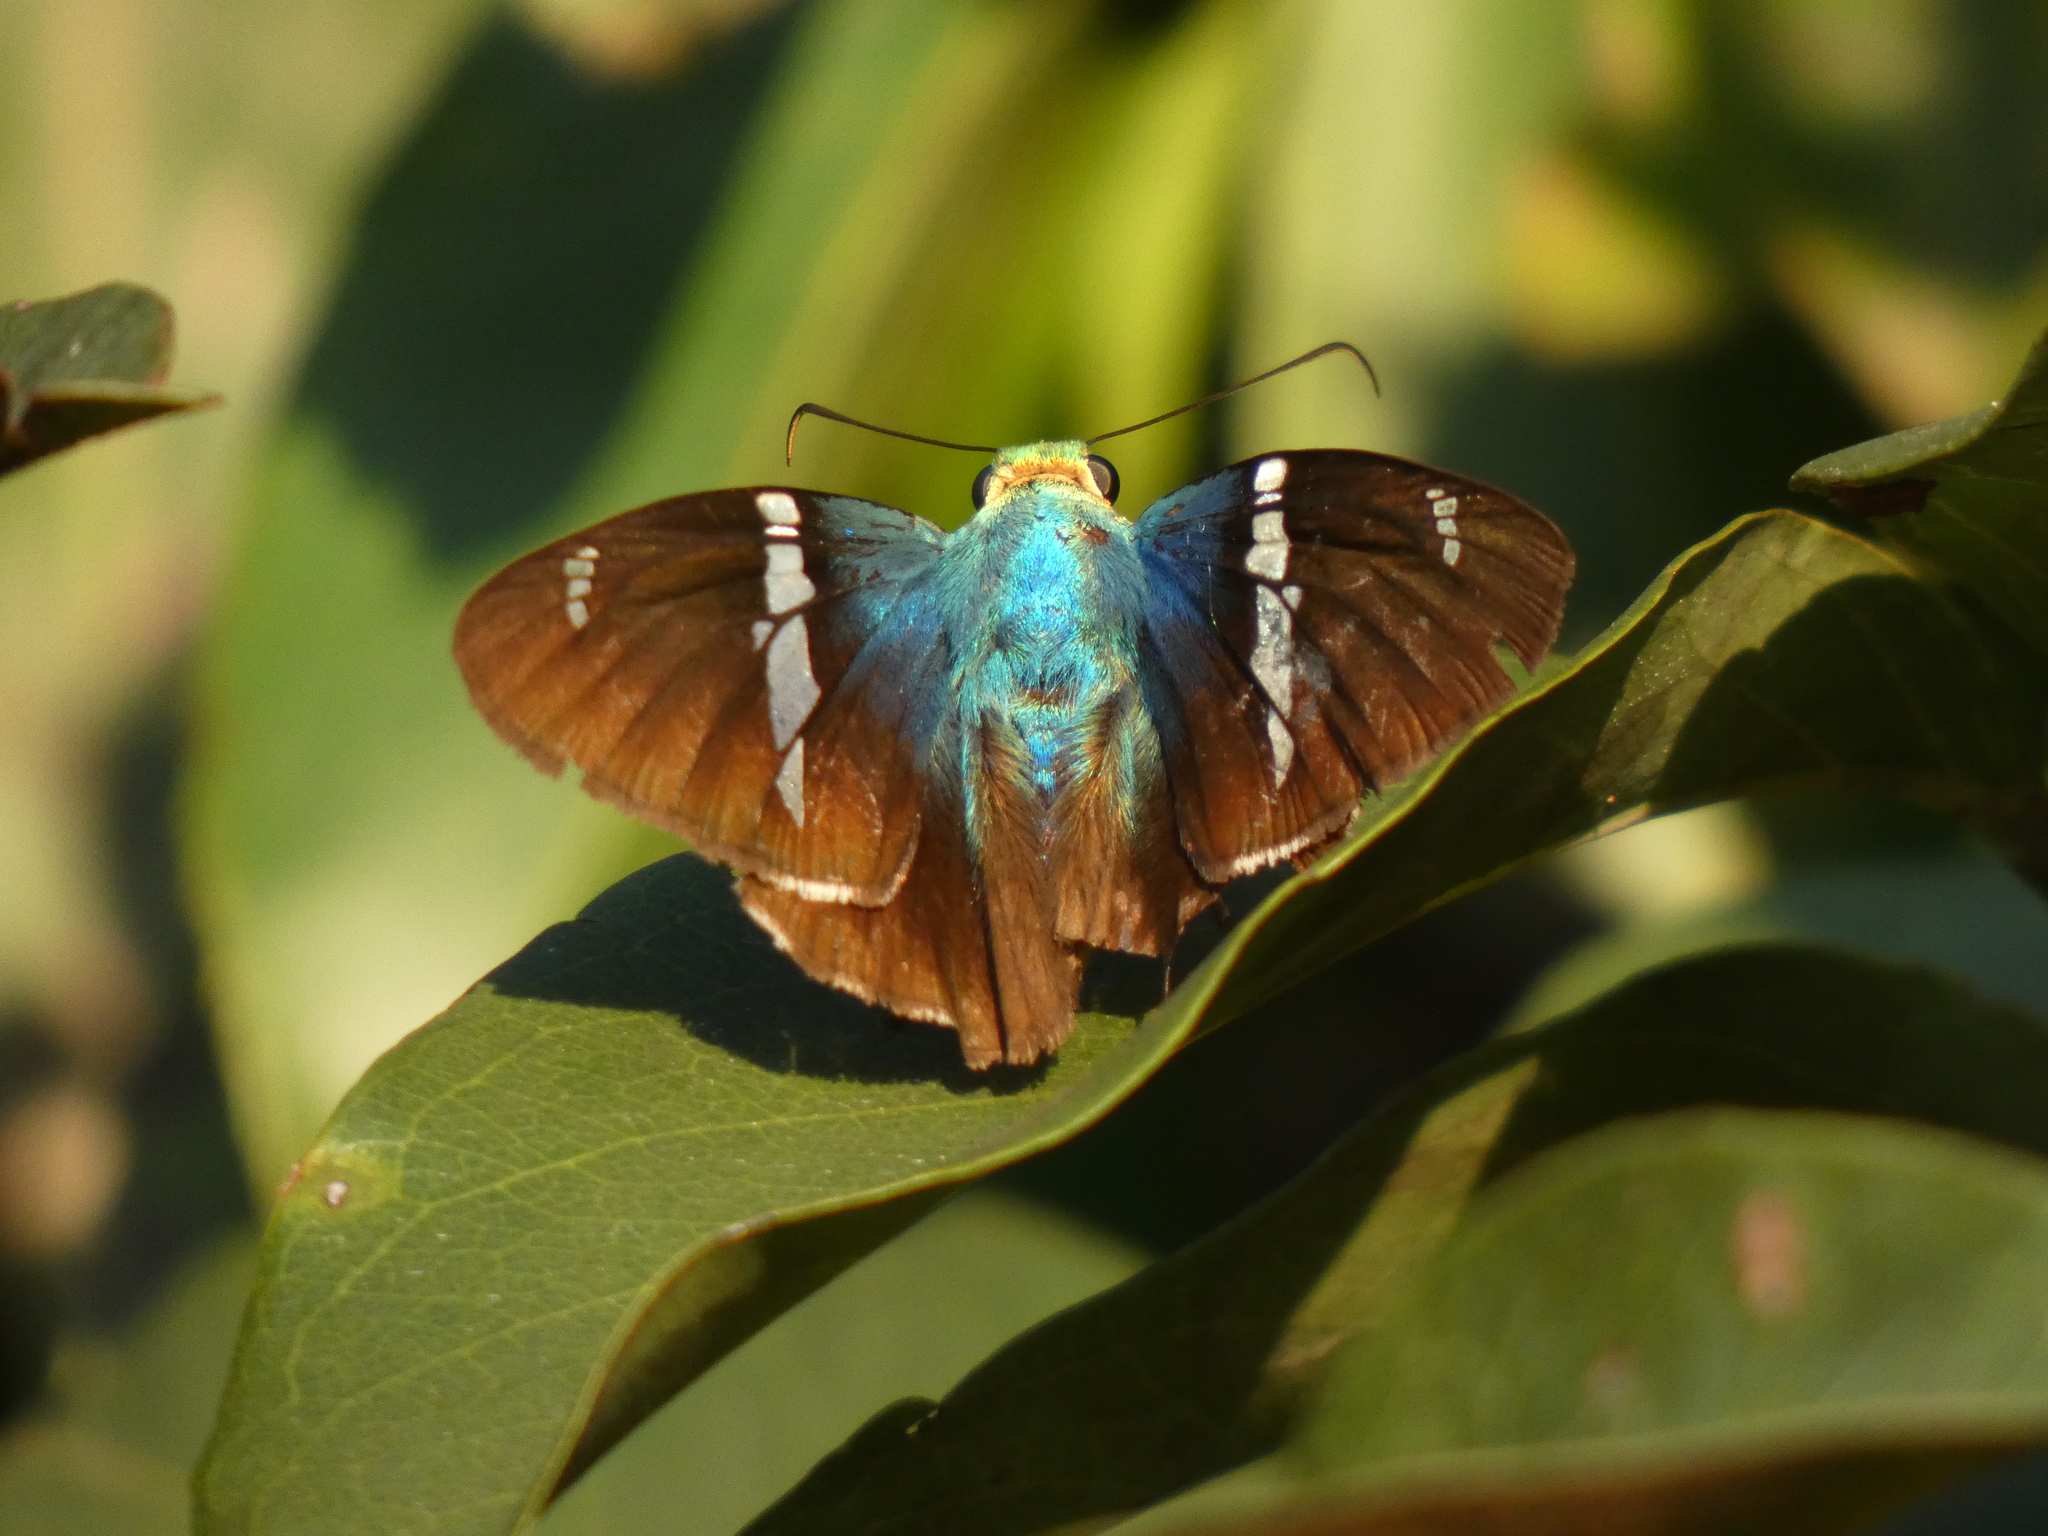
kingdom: Animalia
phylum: Arthropoda
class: Insecta
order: Lepidoptera
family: Hesperiidae
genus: Astraptes
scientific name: Astraptes fulgerator
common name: Two-barred flasher
